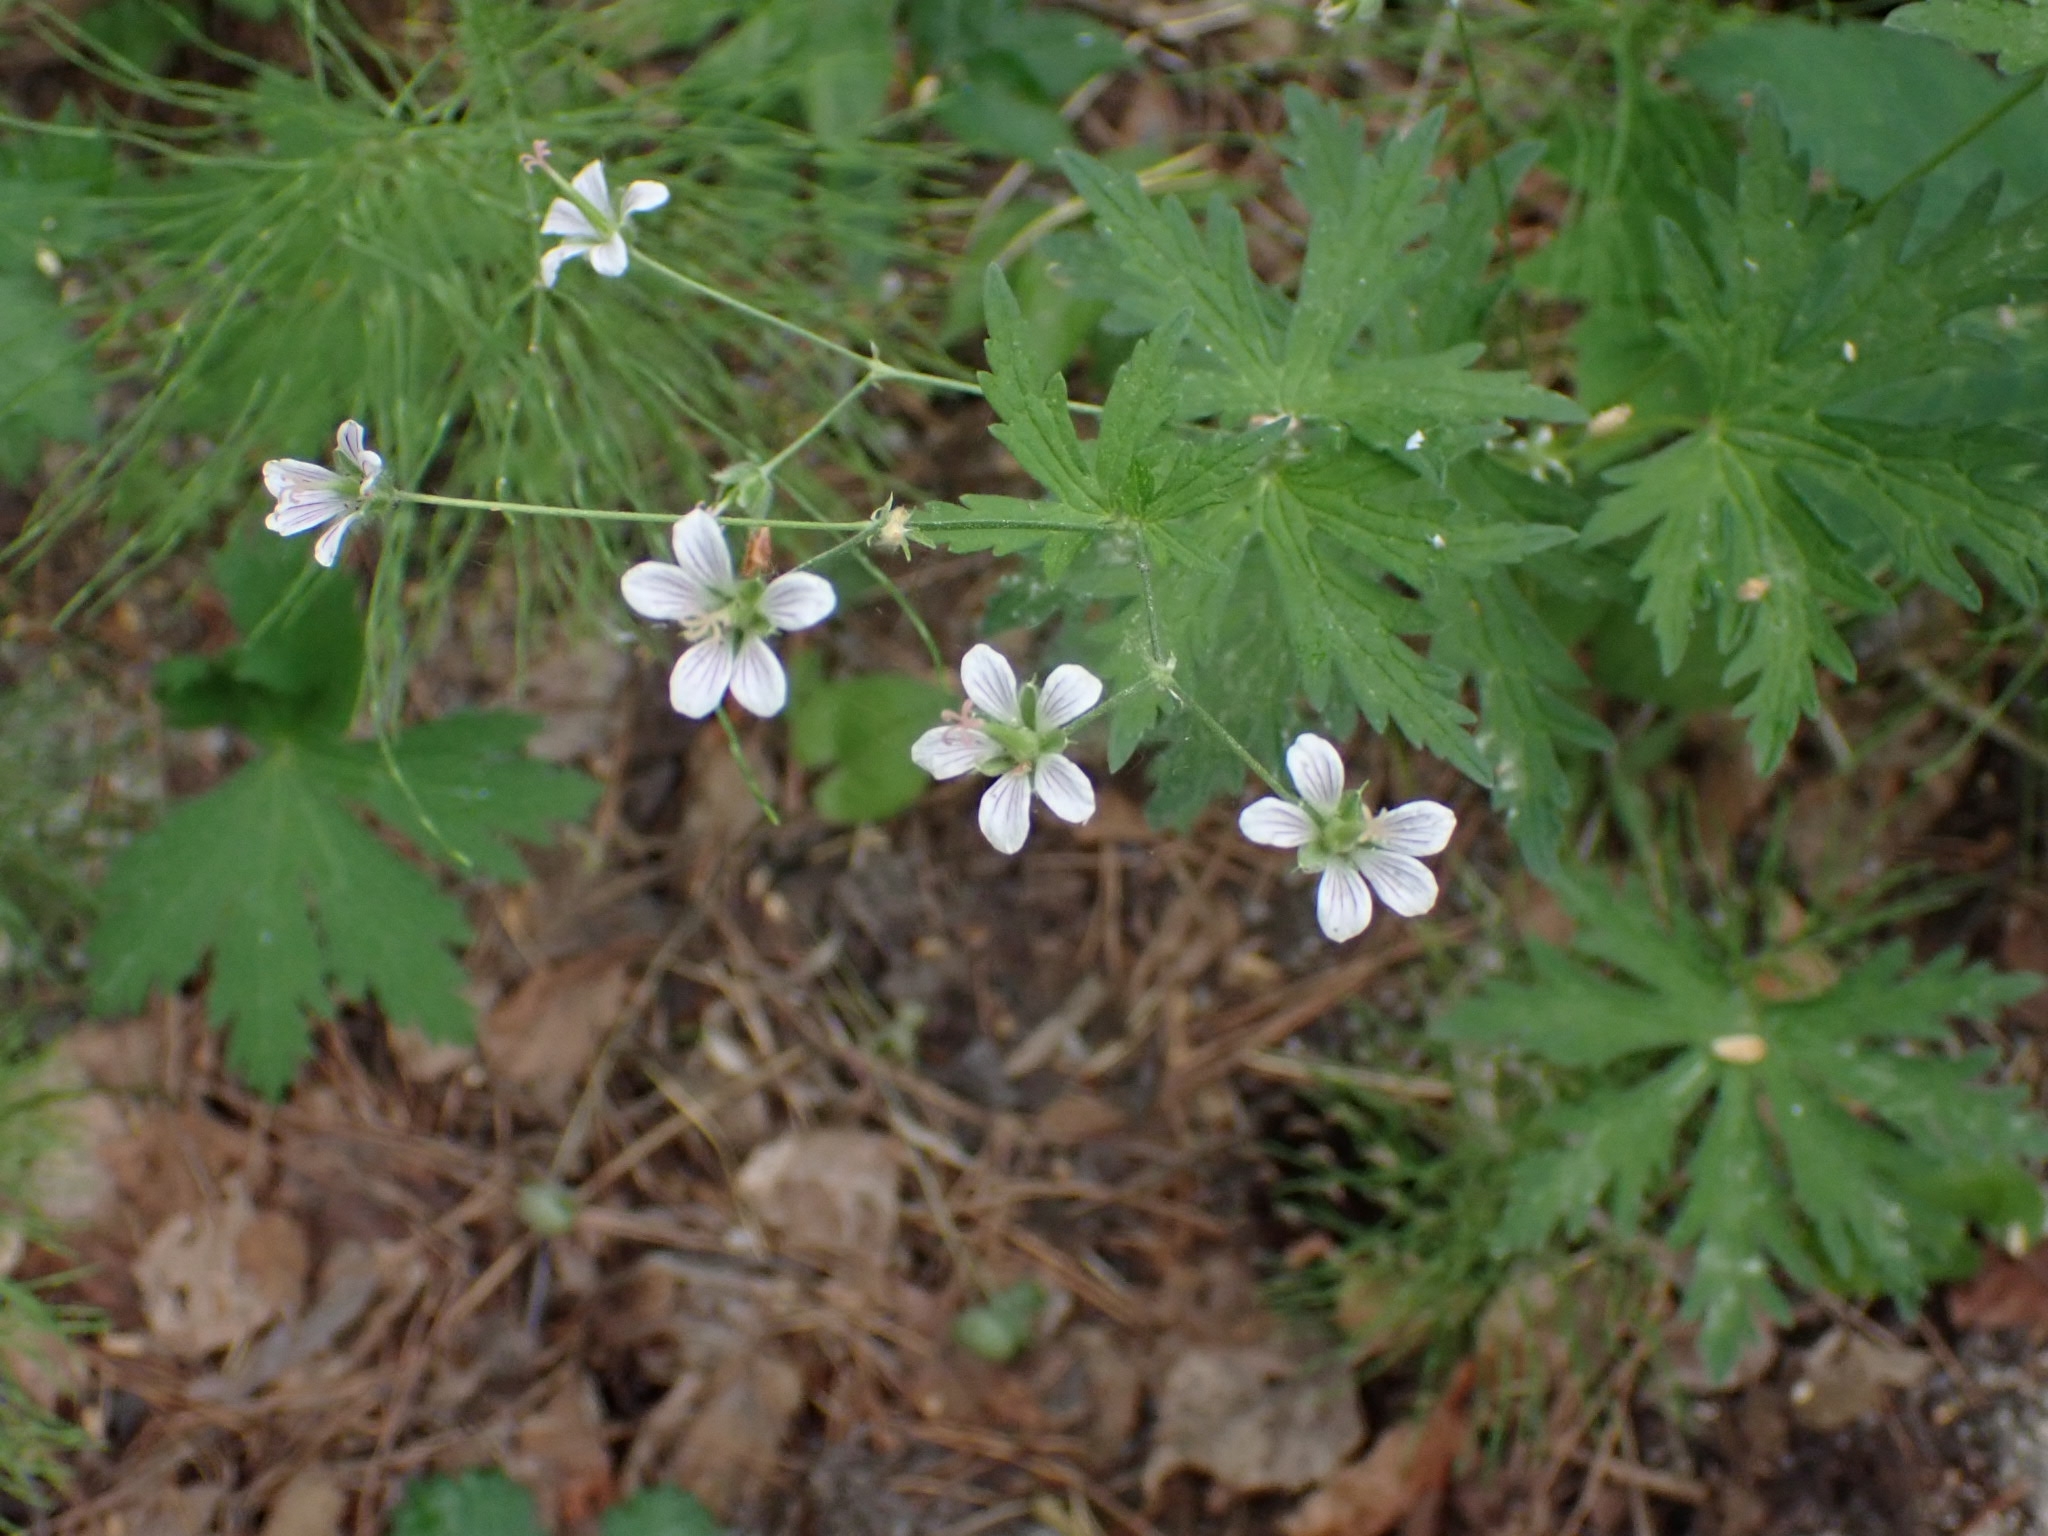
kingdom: Plantae
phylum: Tracheophyta
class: Magnoliopsida
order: Geraniales
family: Geraniaceae
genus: Geranium
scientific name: Geranium pseudosibiricum
